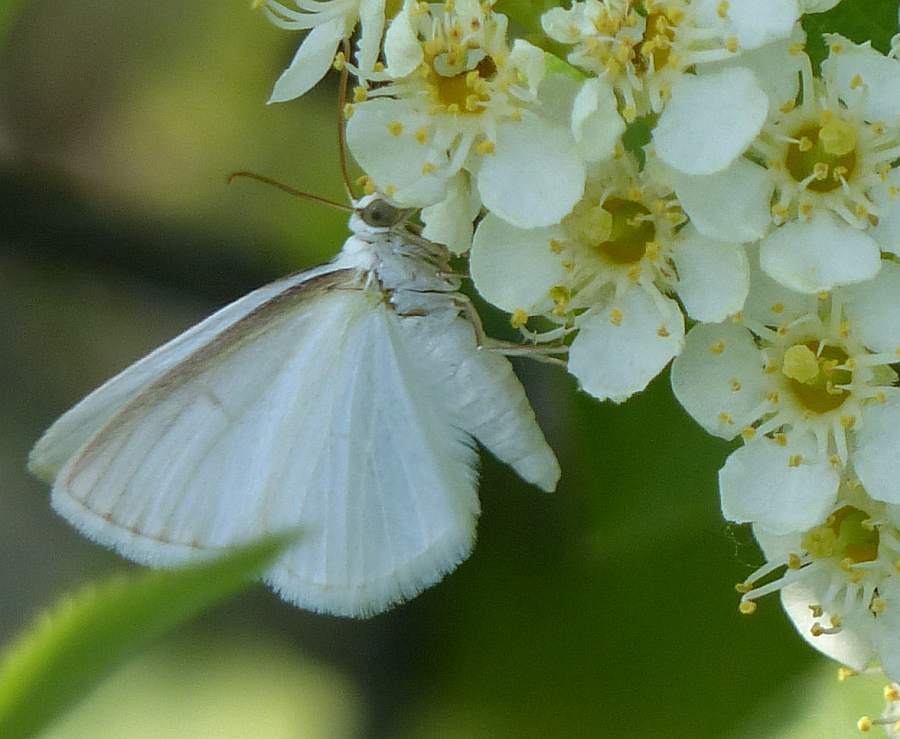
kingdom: Animalia
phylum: Arthropoda
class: Insecta
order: Lepidoptera
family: Geometridae
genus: Lomographa
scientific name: Lomographa vestaliata
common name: White spring moth
